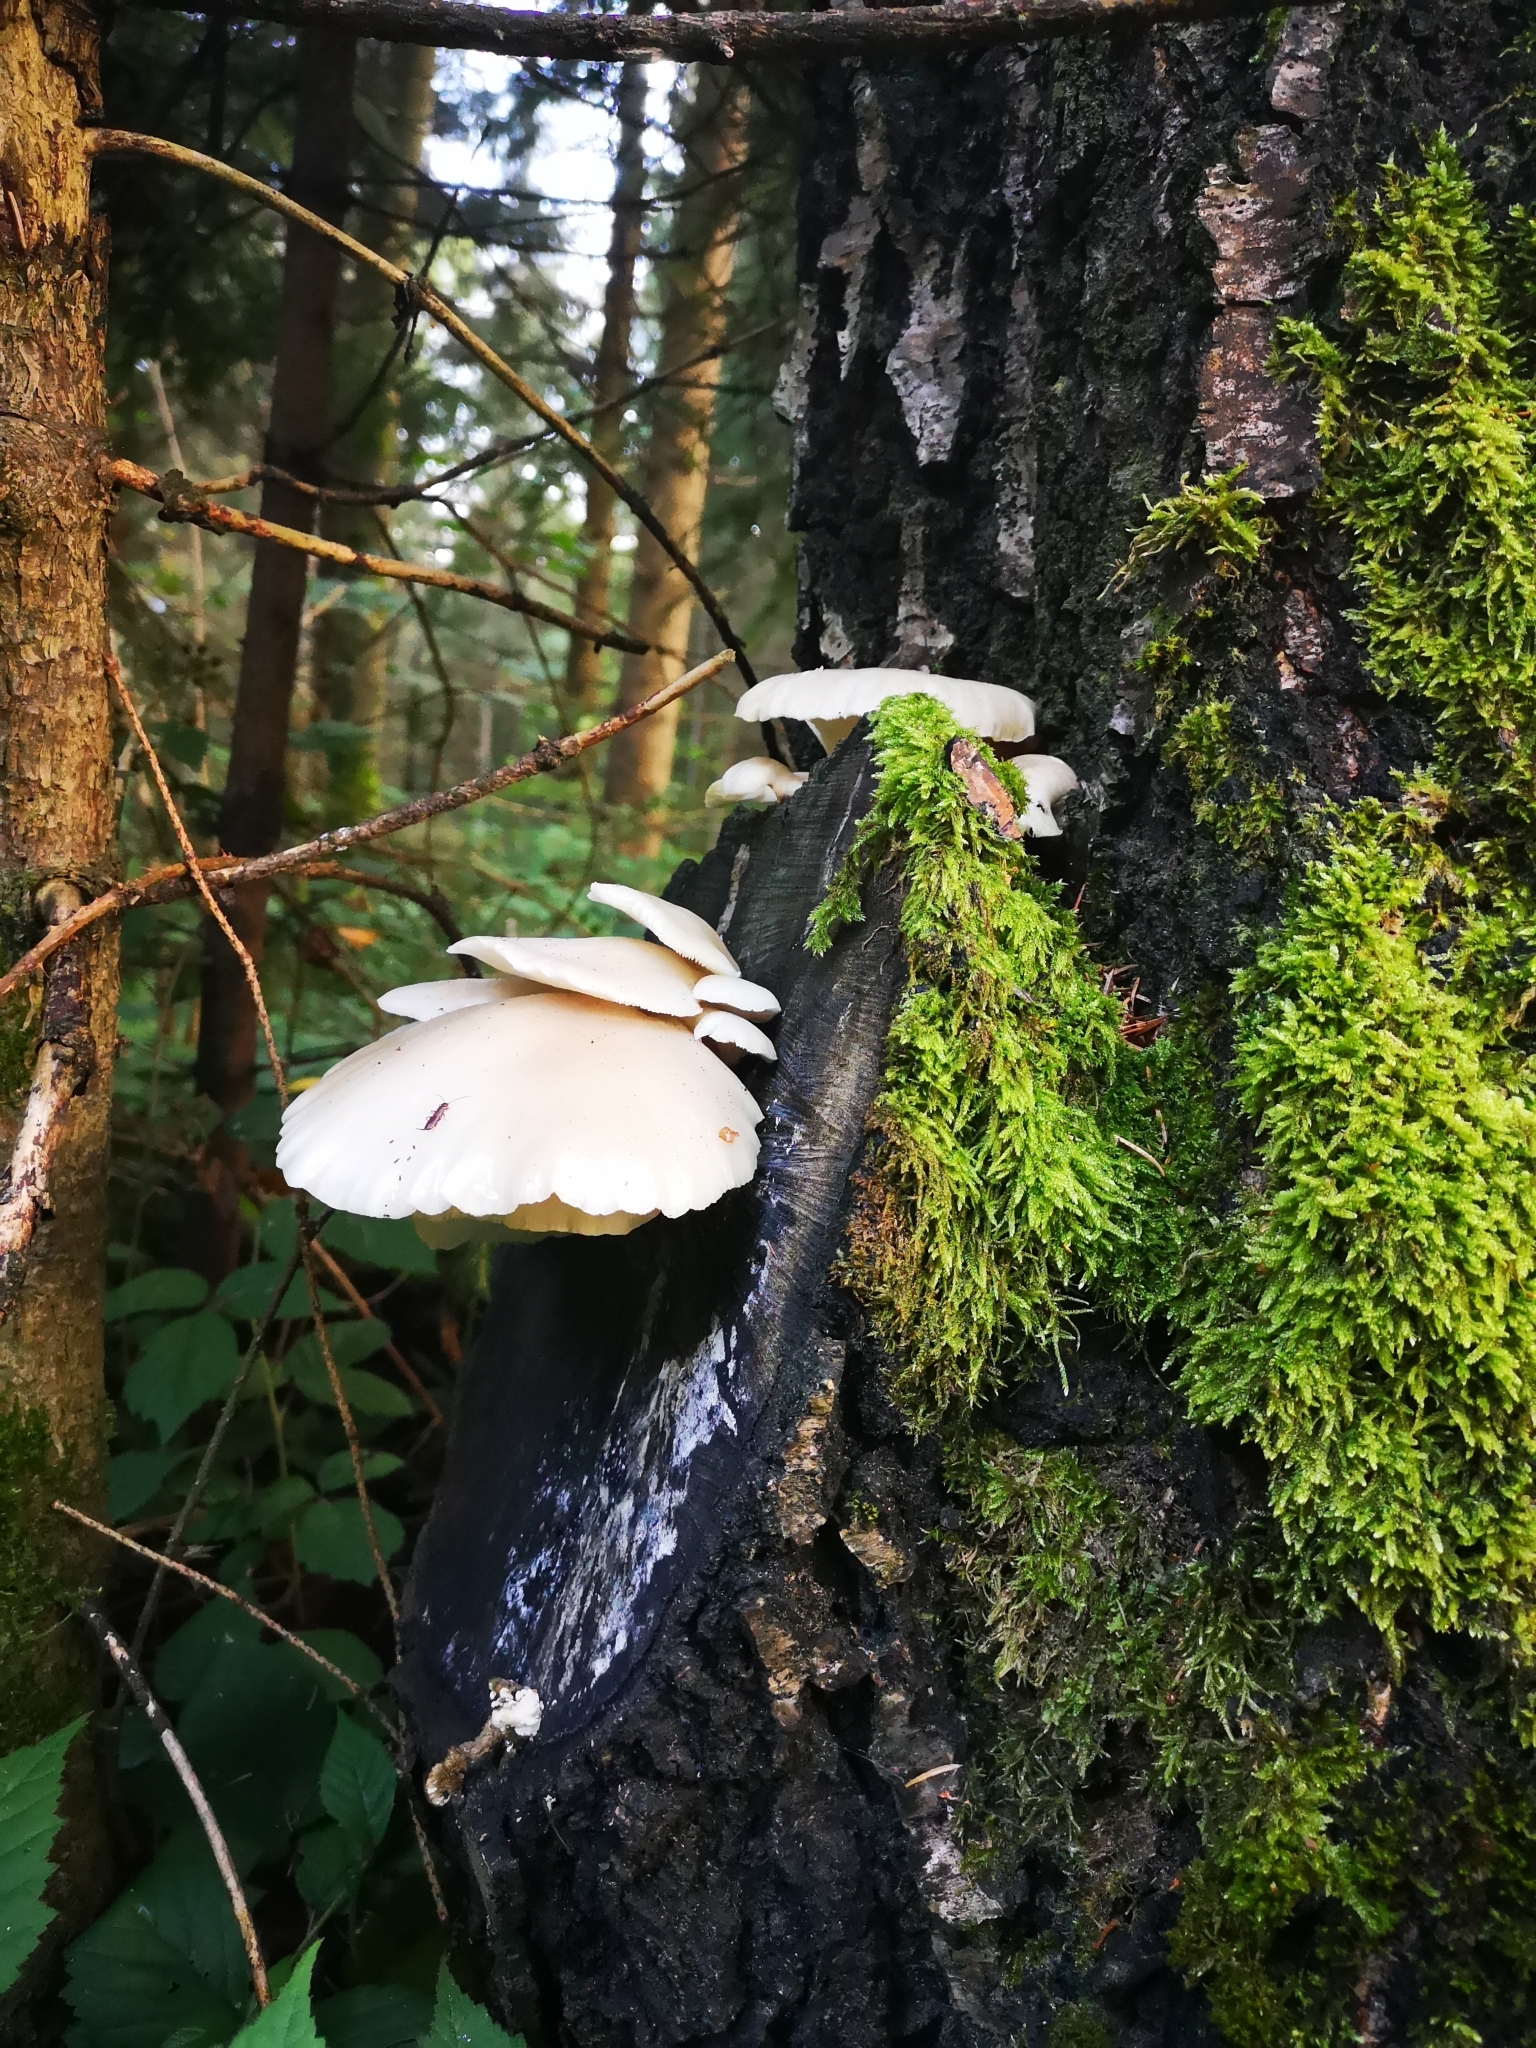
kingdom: Fungi
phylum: Basidiomycota
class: Agaricomycetes
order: Agaricales
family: Pleurotaceae
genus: Pleurotus
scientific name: Pleurotus pulmonarius
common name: Pale oyster
